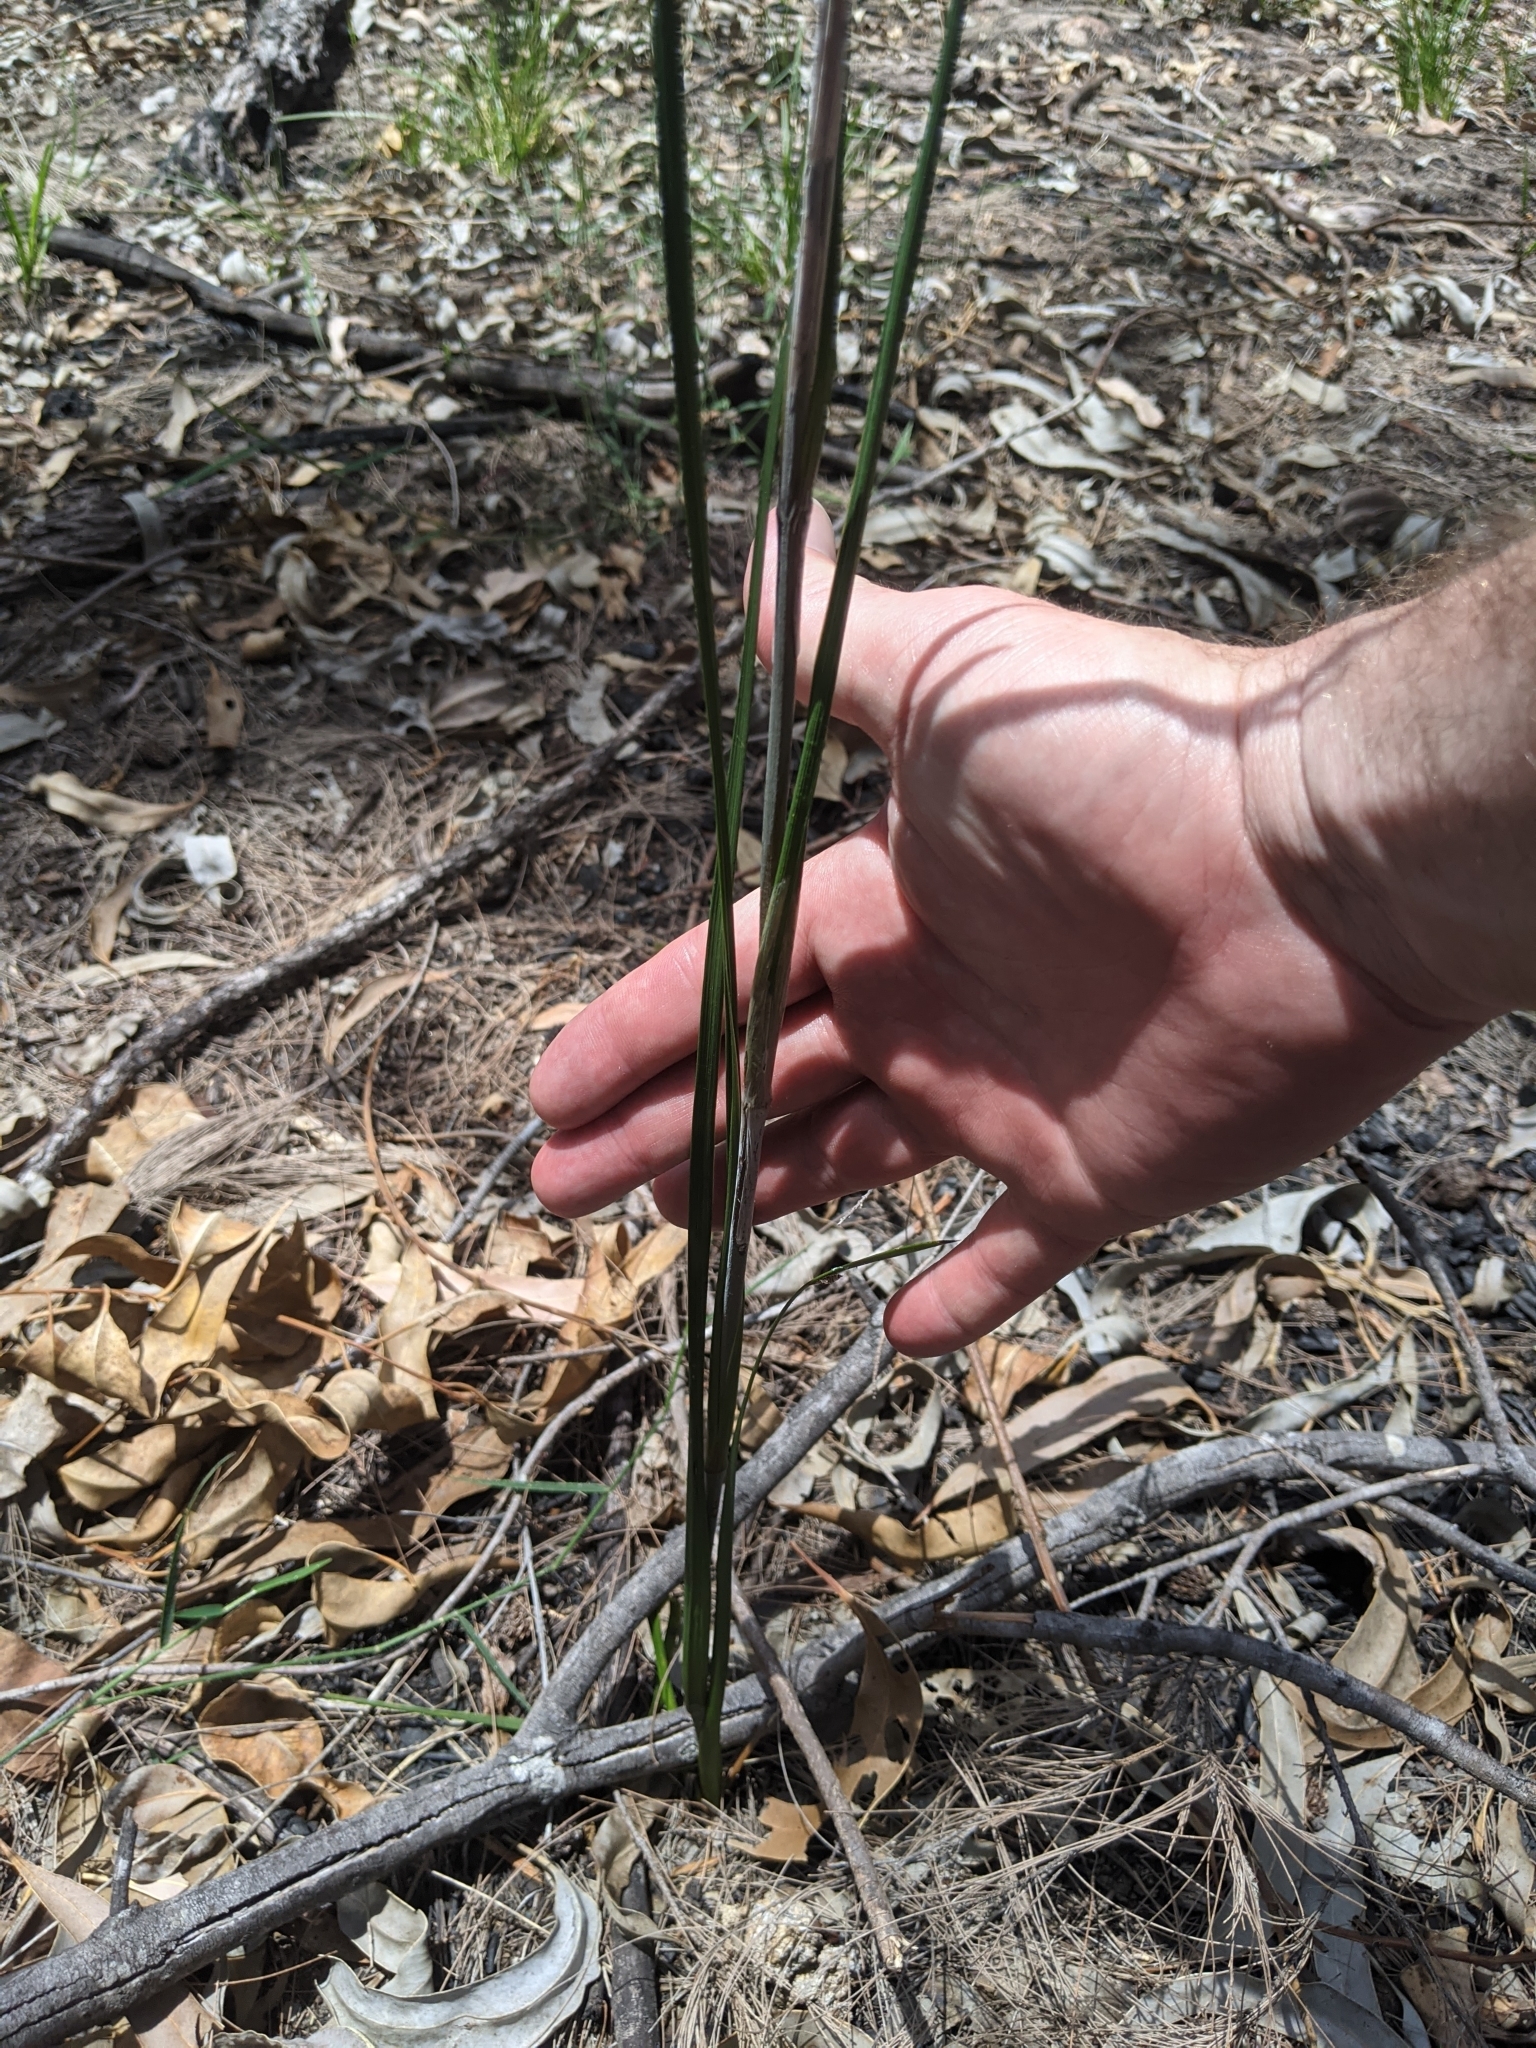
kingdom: Plantae
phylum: Tracheophyta
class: Liliopsida
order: Commelinales
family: Haemodoraceae
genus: Haemodorum
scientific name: Haemodorum austroqueenslandicum
